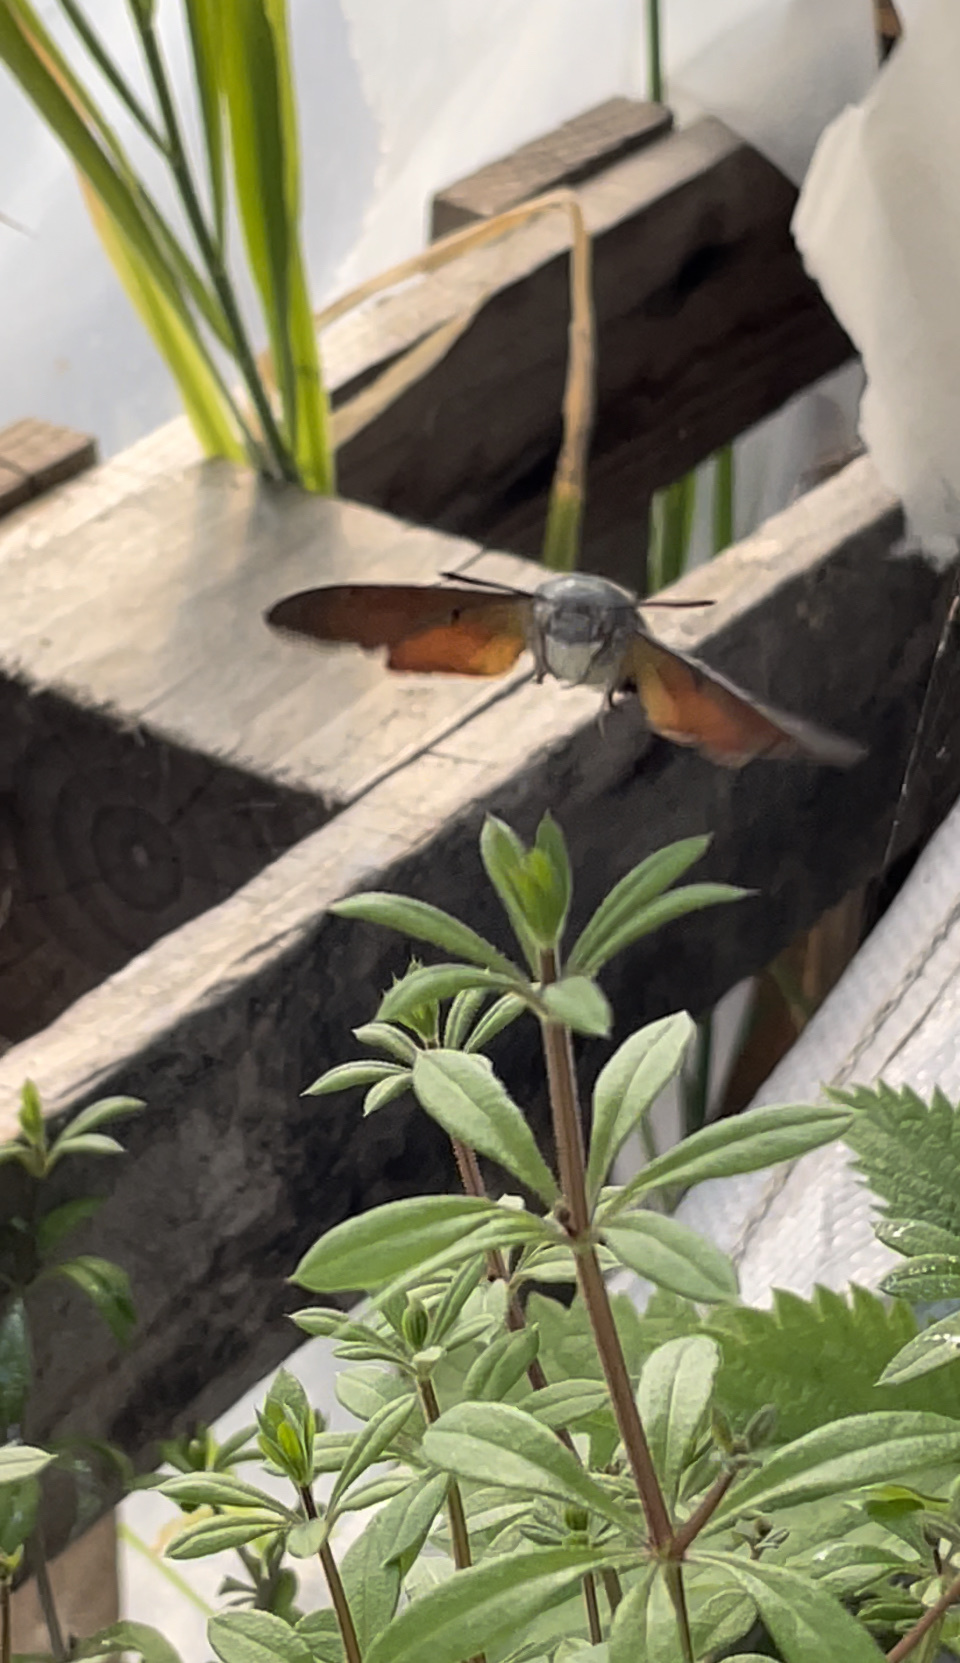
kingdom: Animalia
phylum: Arthropoda
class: Insecta
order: Lepidoptera
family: Sphingidae
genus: Macroglossum
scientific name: Macroglossum stellatarum
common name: Humming-bird hawk-moth
